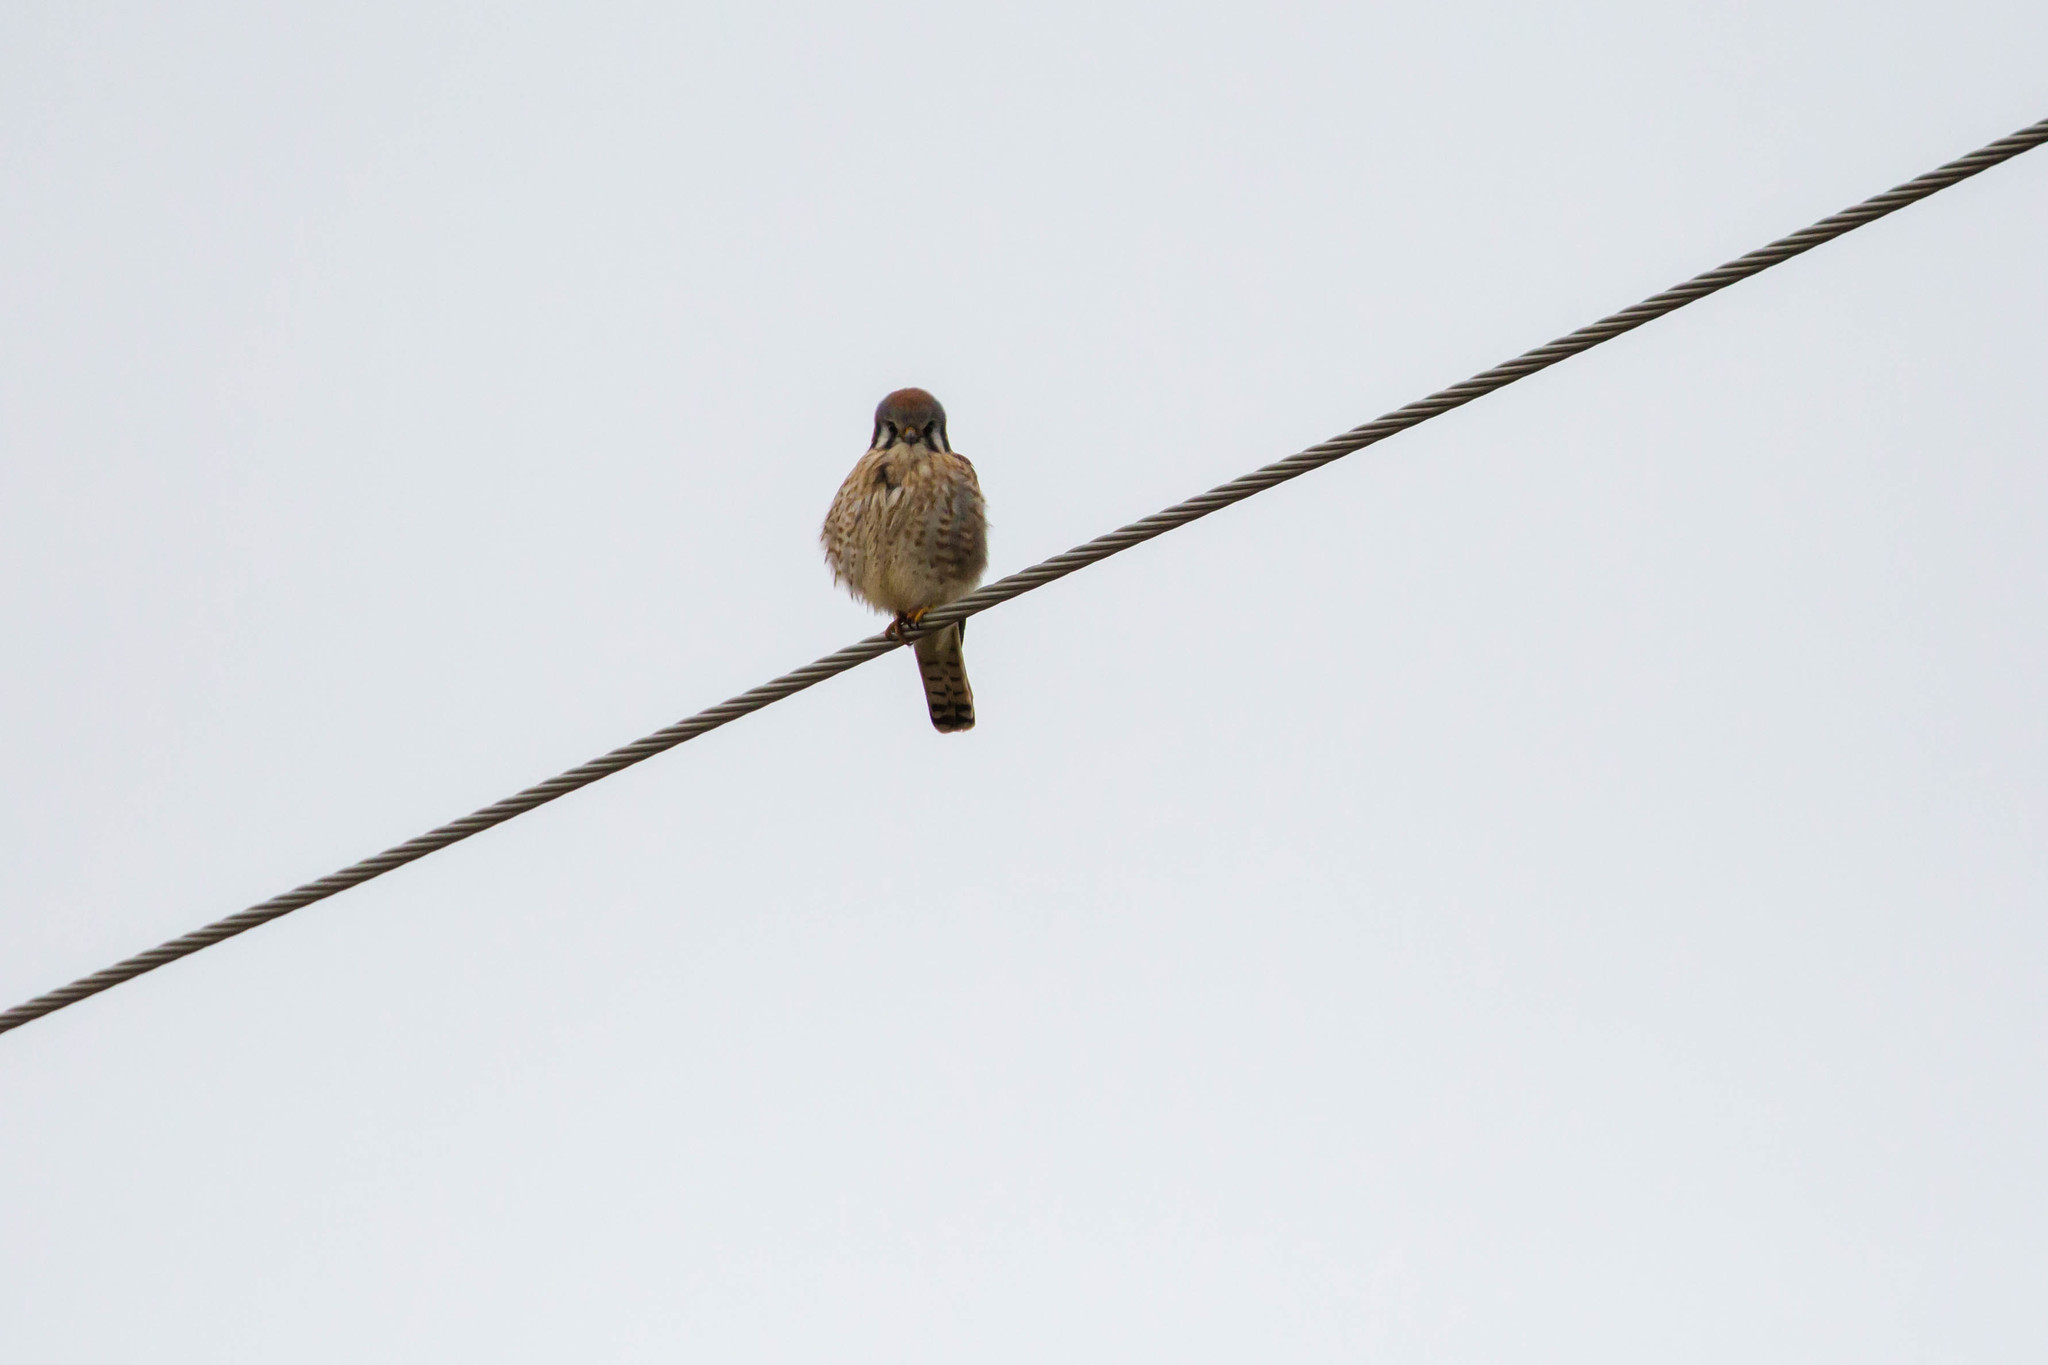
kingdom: Animalia
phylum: Chordata
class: Aves
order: Falconiformes
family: Falconidae
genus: Falco
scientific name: Falco sparverius
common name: American kestrel
